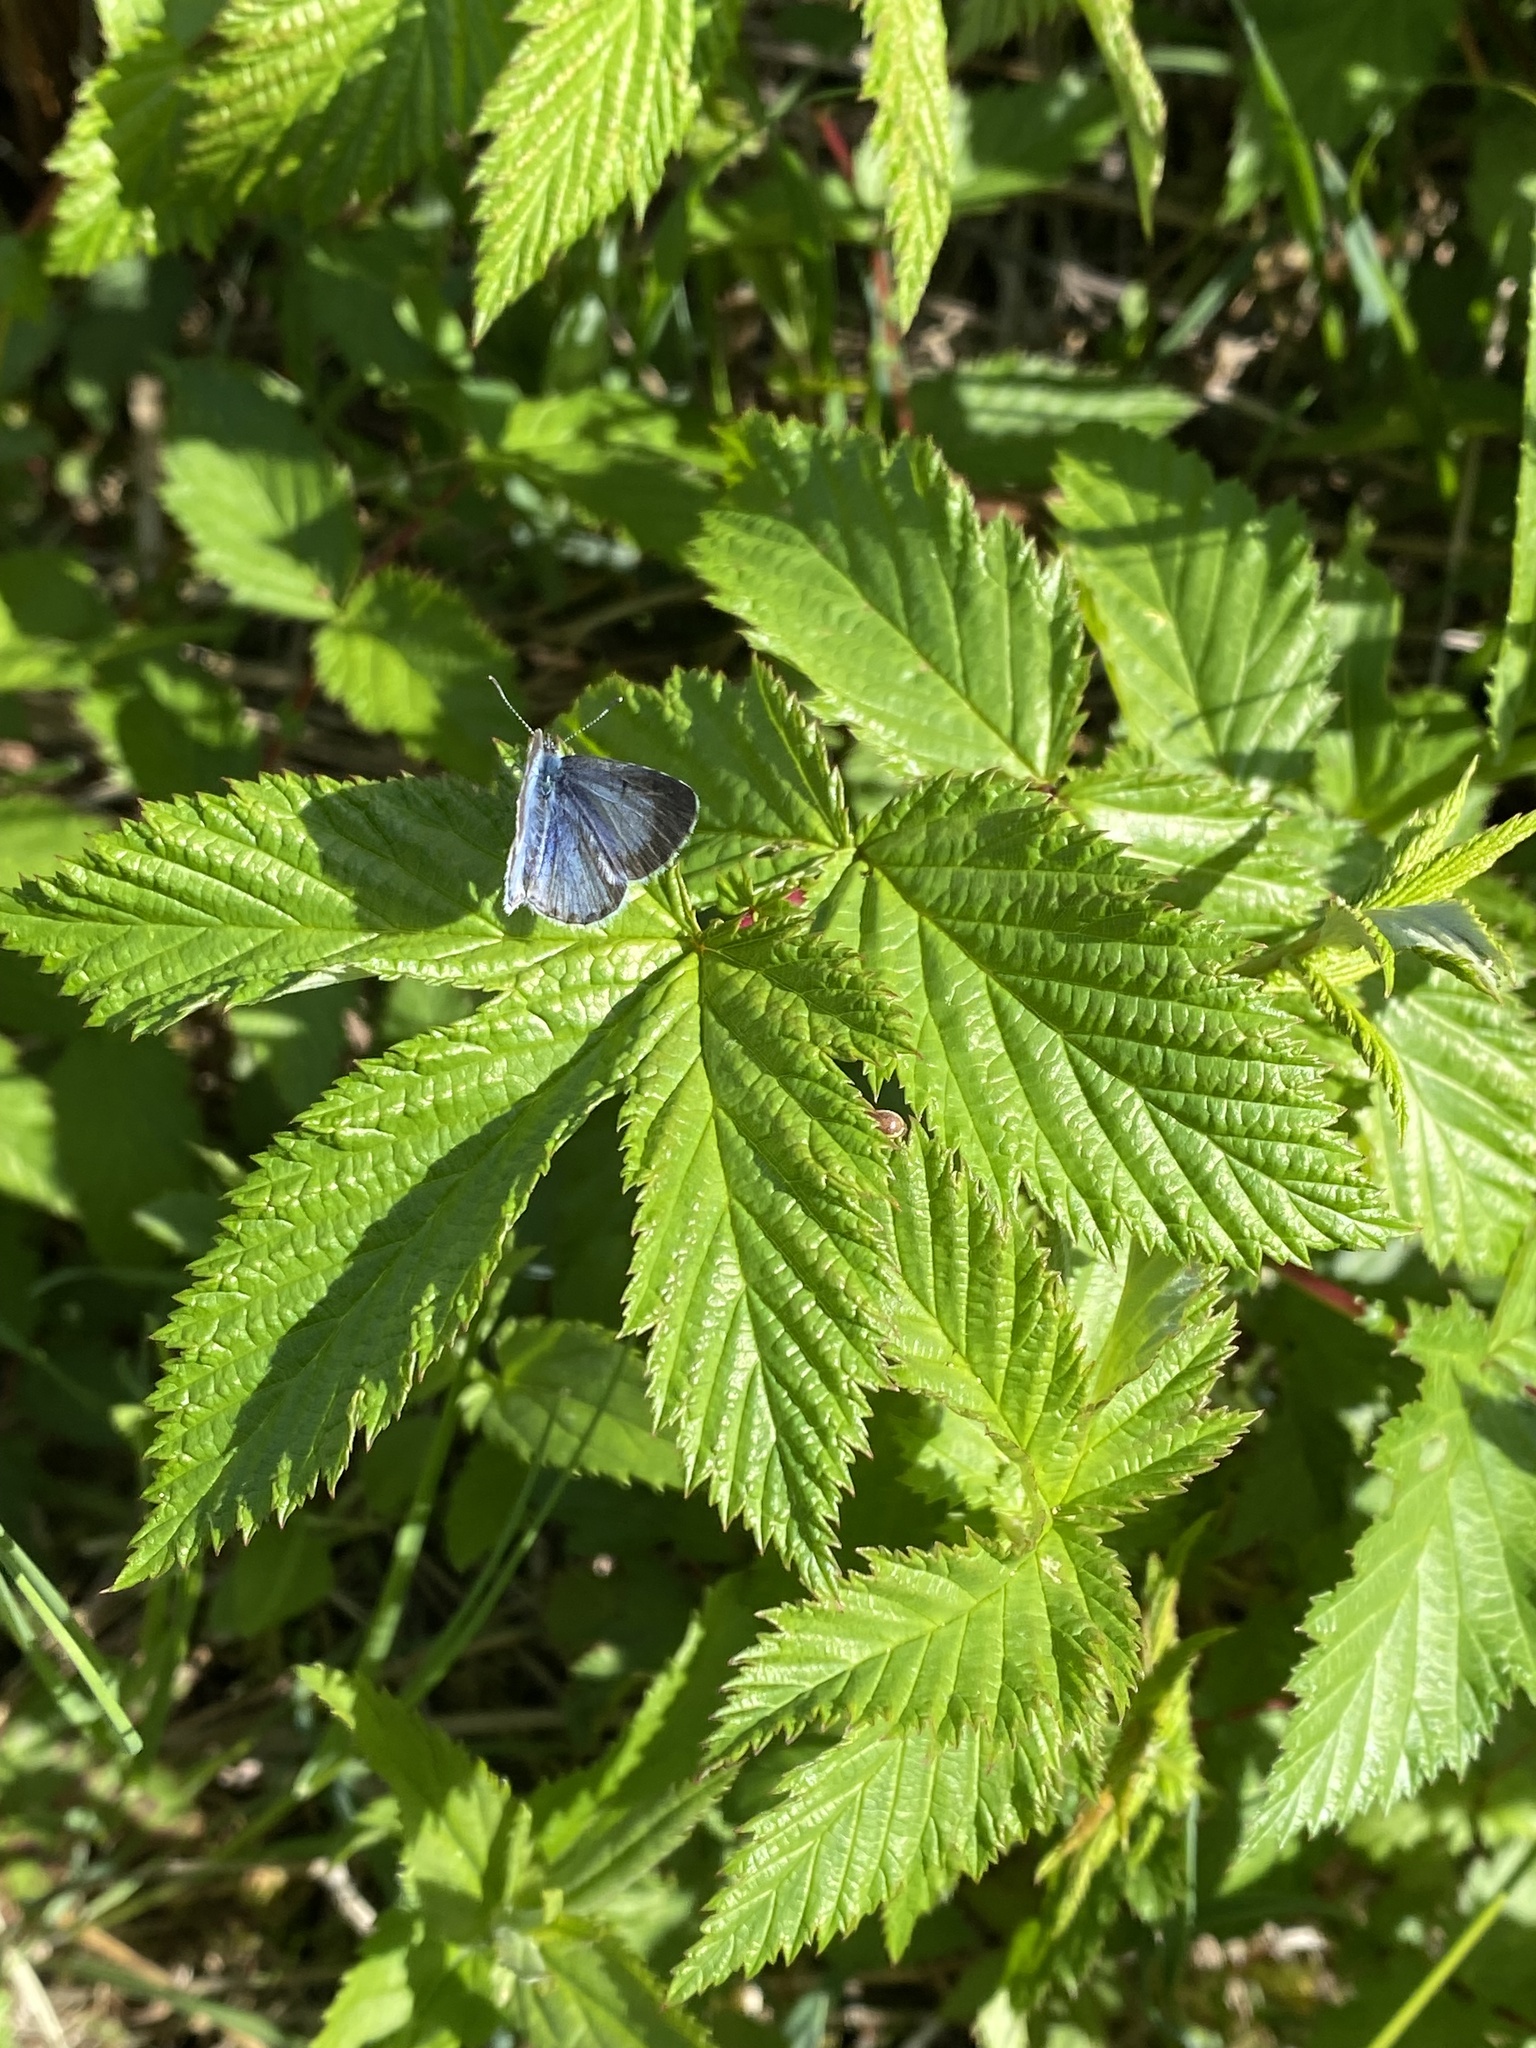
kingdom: Animalia
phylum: Arthropoda
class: Insecta
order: Lepidoptera
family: Lycaenidae
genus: Celastrina
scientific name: Celastrina argiolus
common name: Holly blue
